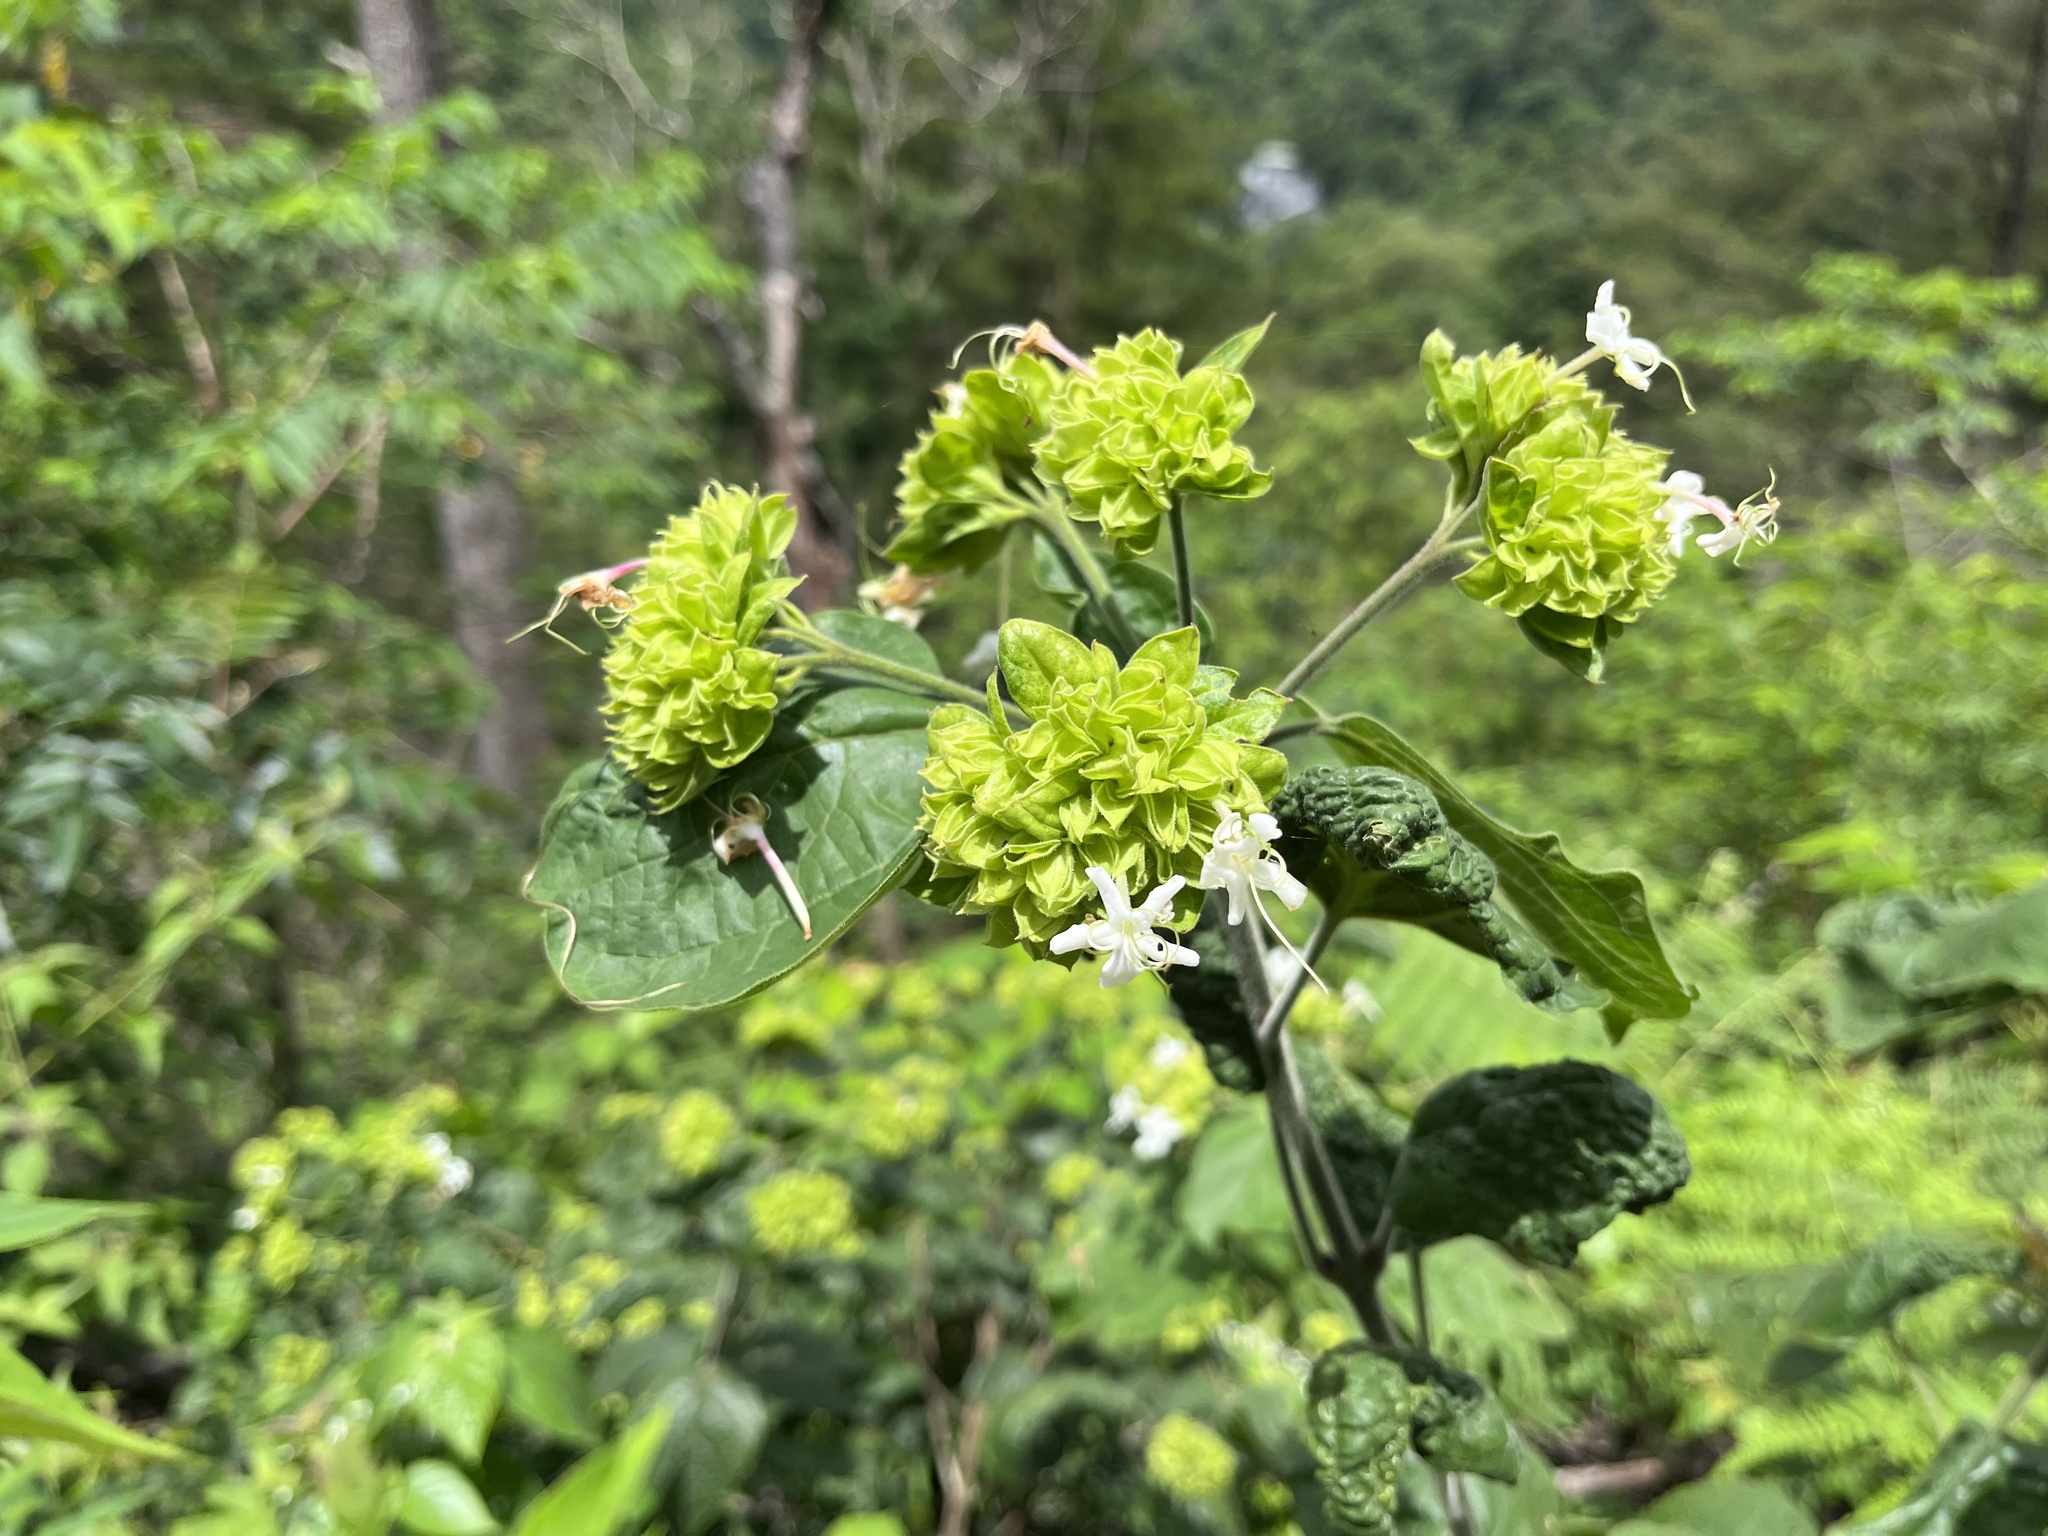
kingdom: Plantae
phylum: Tracheophyta
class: Magnoliopsida
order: Lamiales
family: Lamiaceae
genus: Clerodendrum
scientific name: Clerodendrum canescens
